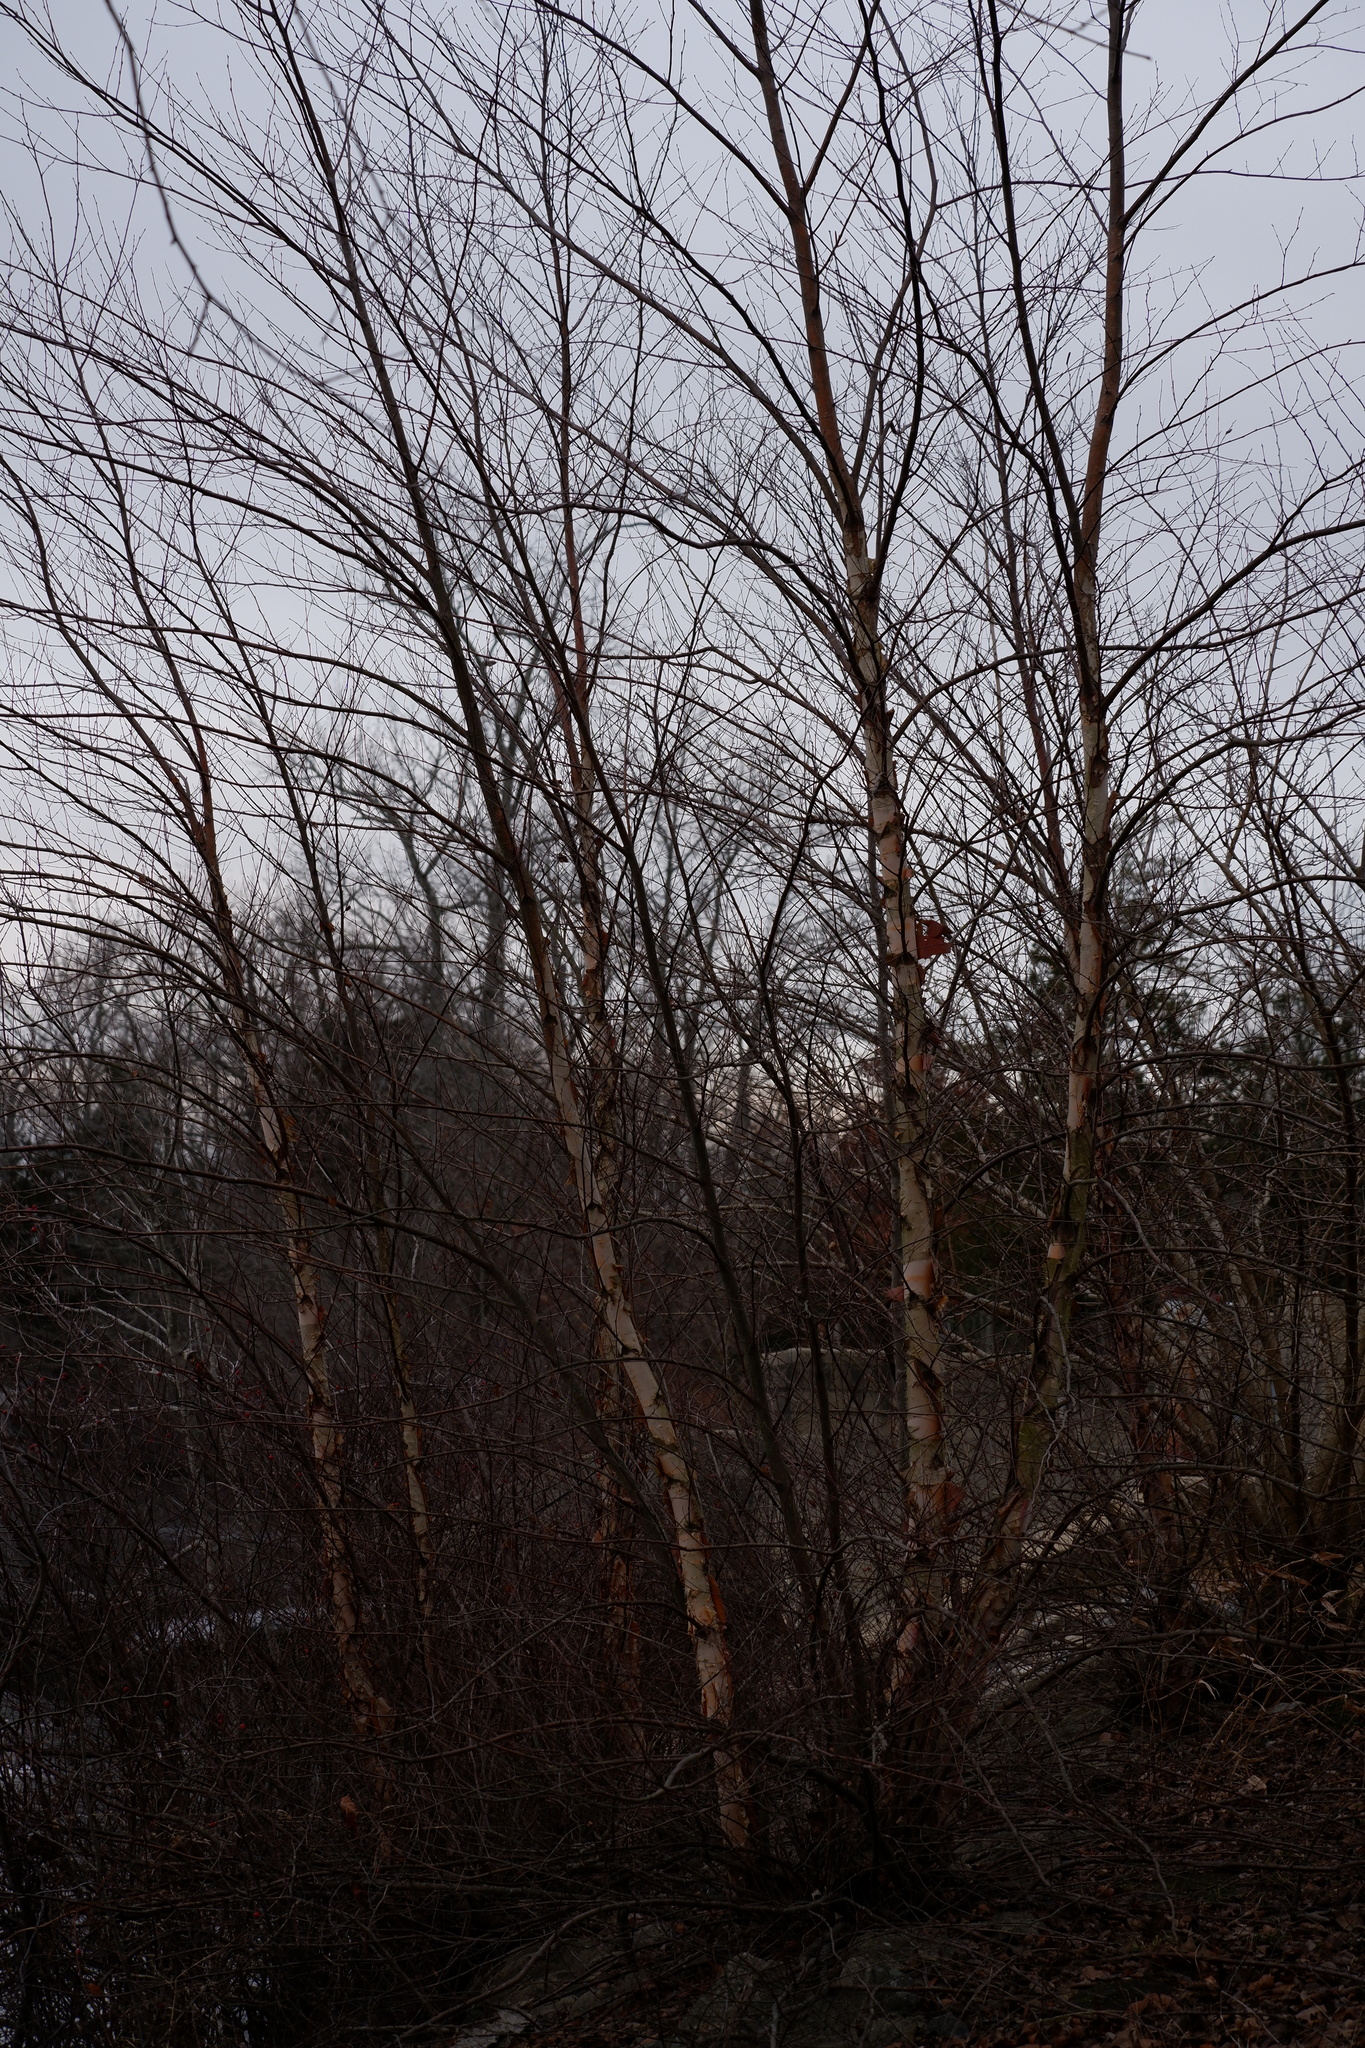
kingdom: Plantae
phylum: Tracheophyta
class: Magnoliopsida
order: Fagales
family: Betulaceae
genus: Betula
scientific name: Betula nigra
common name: Black birch
